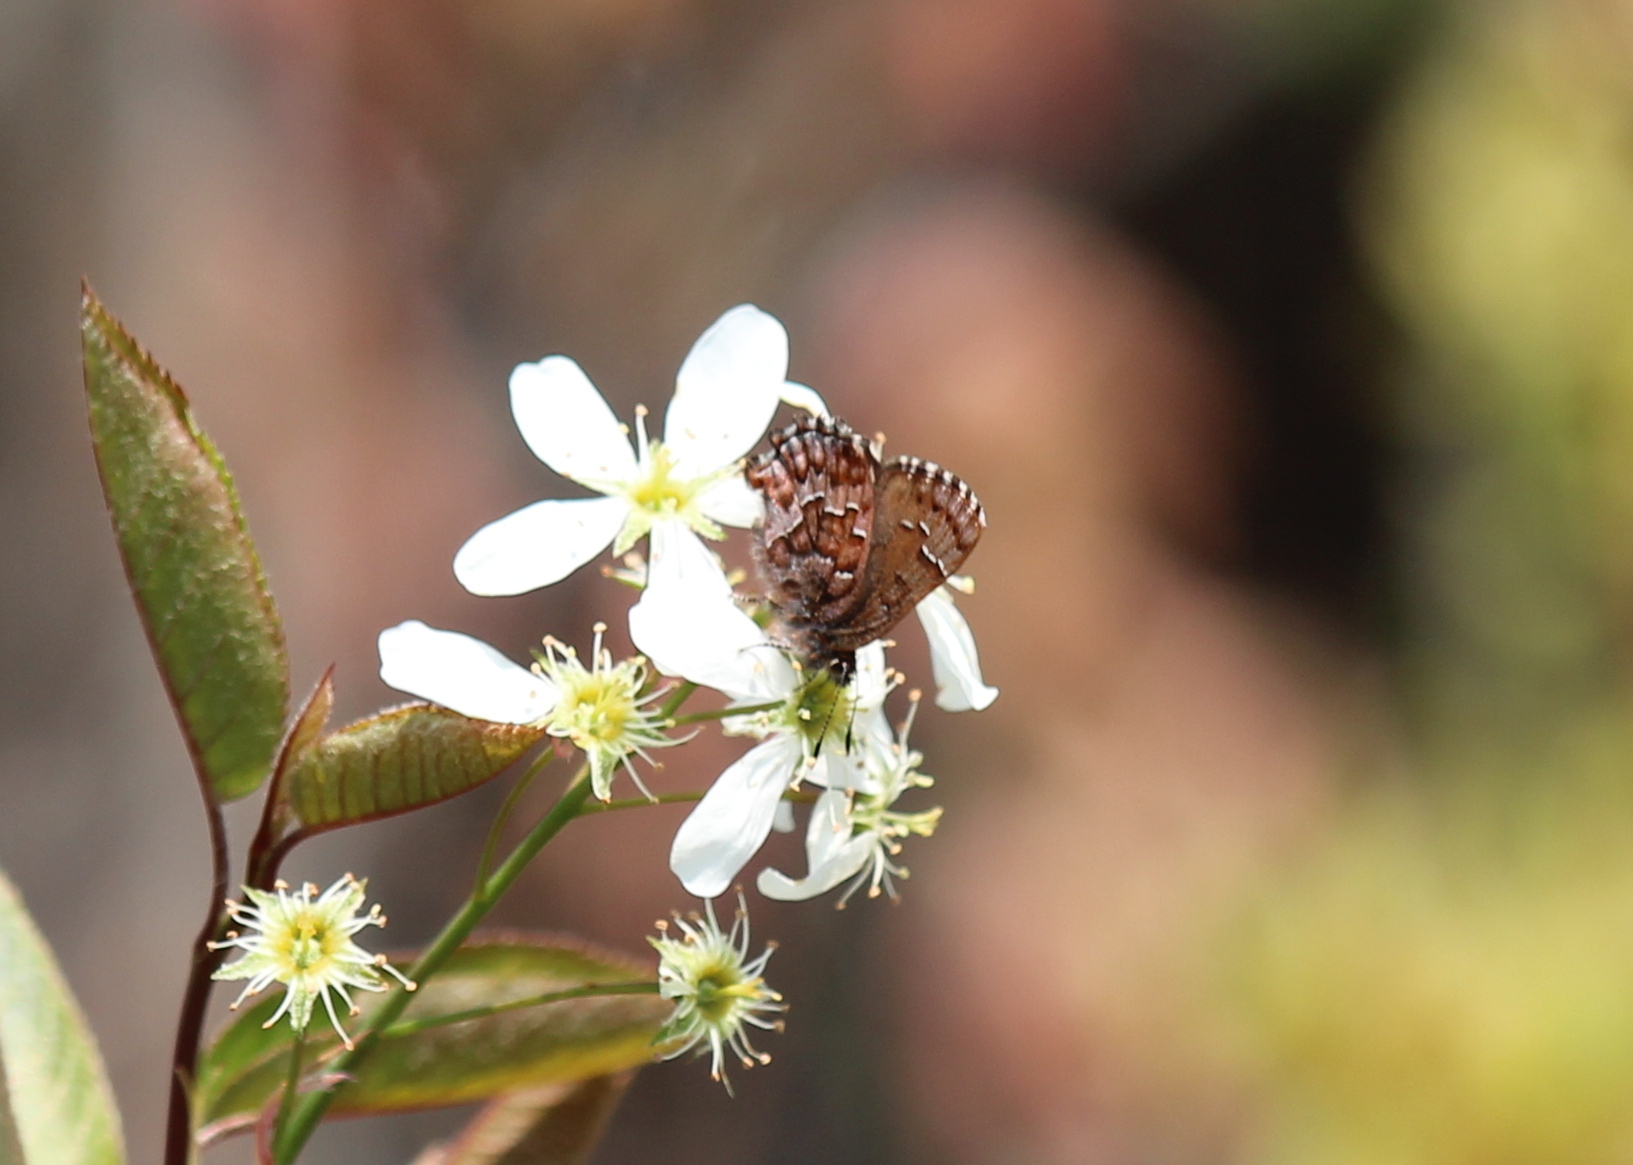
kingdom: Animalia
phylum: Arthropoda
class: Insecta
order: Lepidoptera
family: Lycaenidae
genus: Incisalia
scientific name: Incisalia niphon
